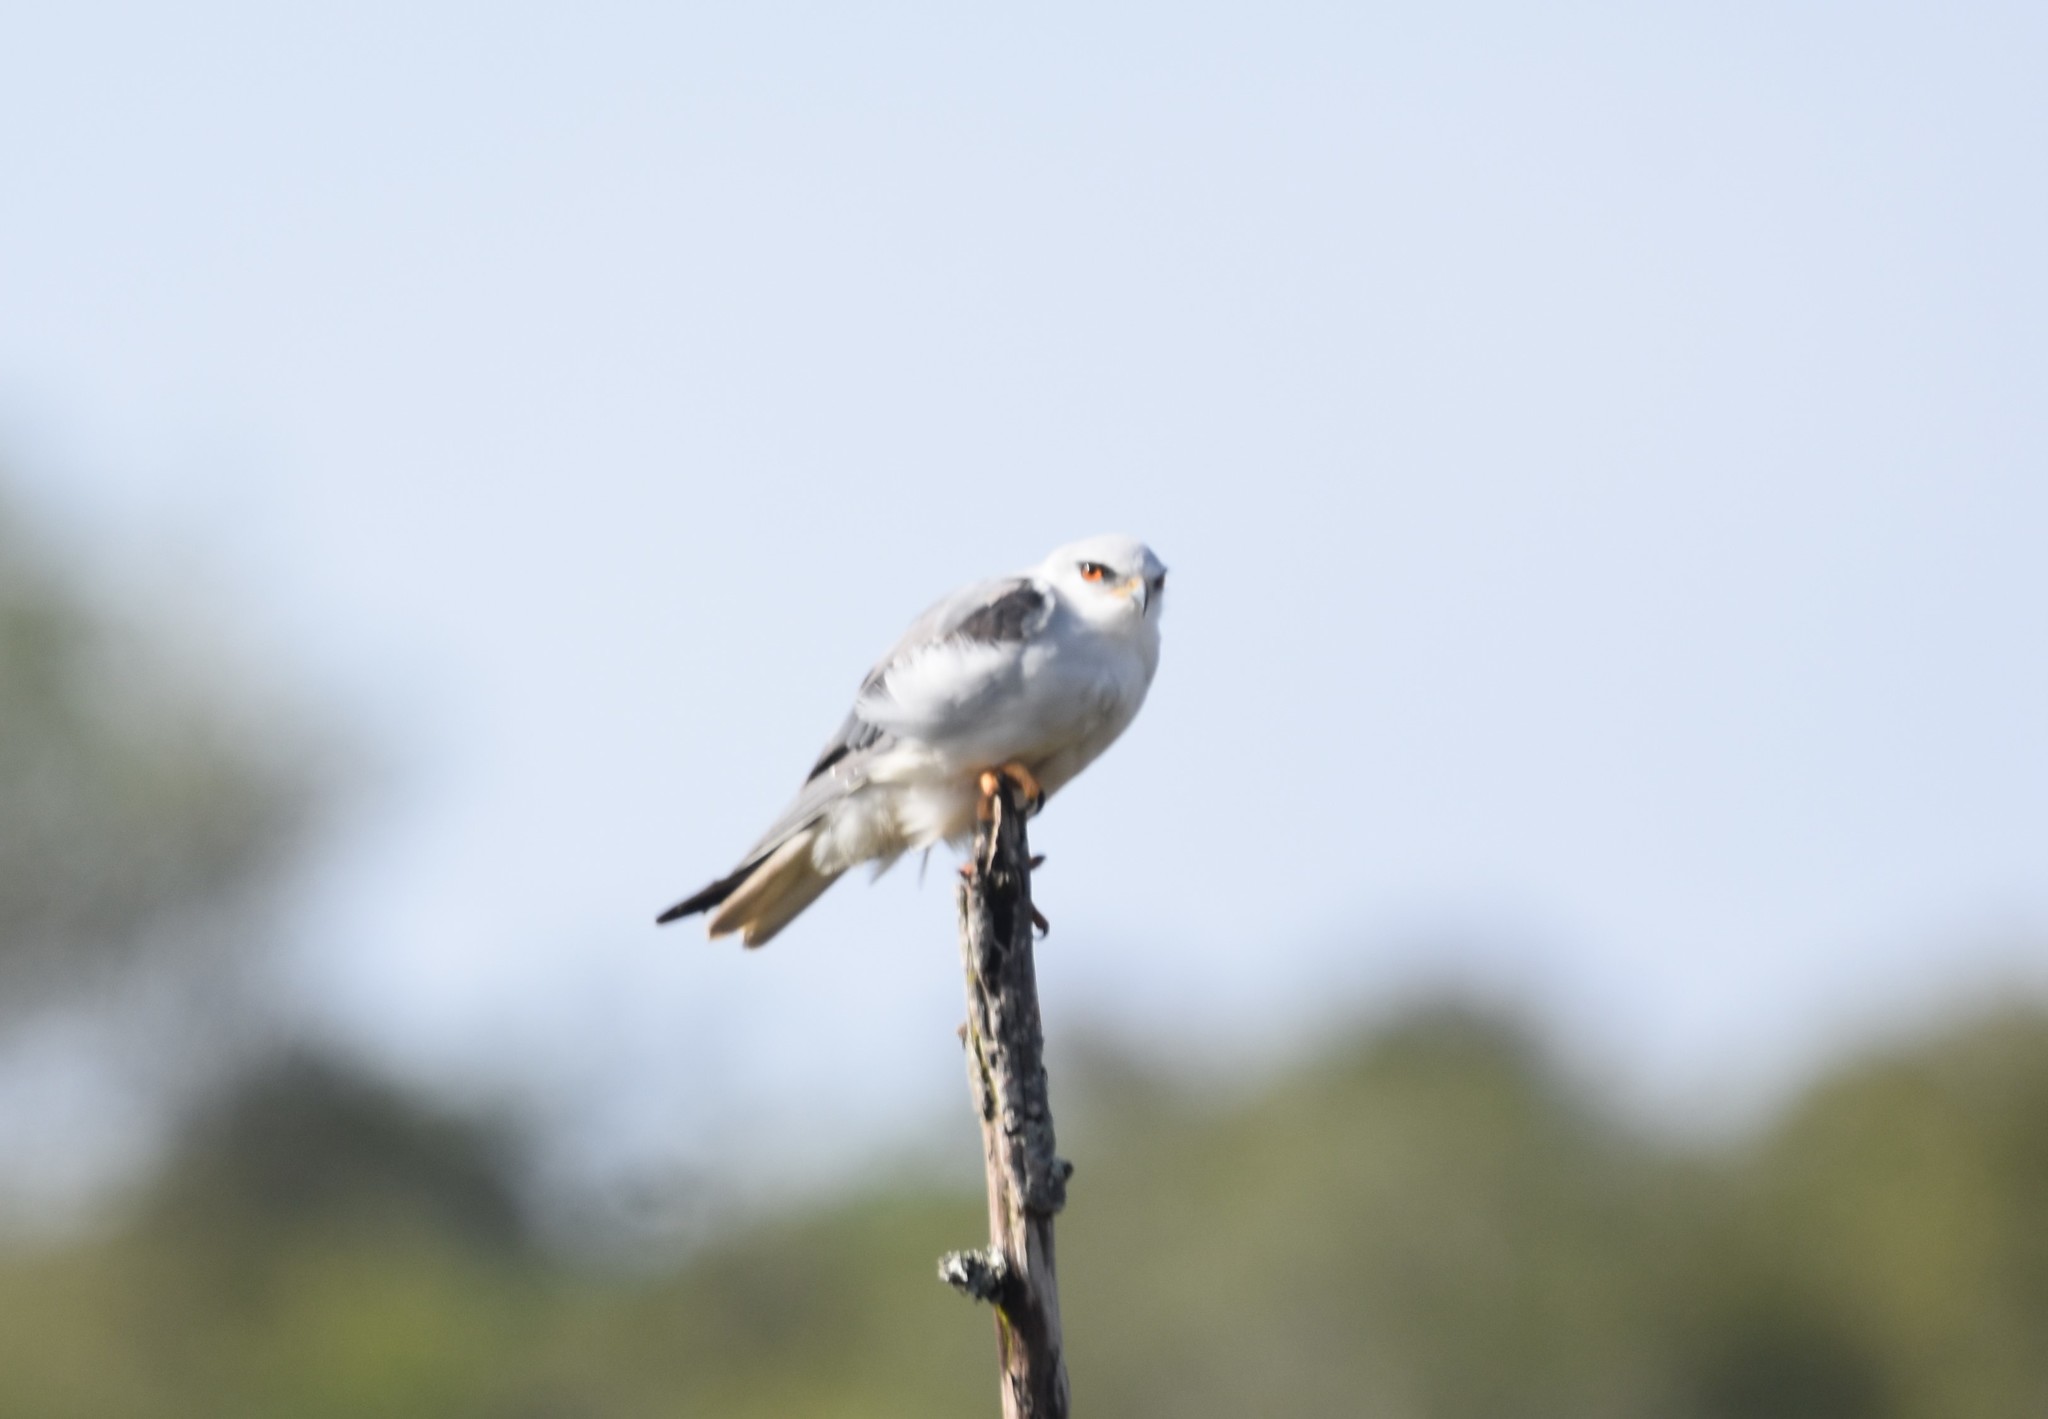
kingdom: Animalia
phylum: Chordata
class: Aves
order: Accipitriformes
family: Accipitridae
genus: Elanus
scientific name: Elanus caeruleus
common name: Black-winged kite
